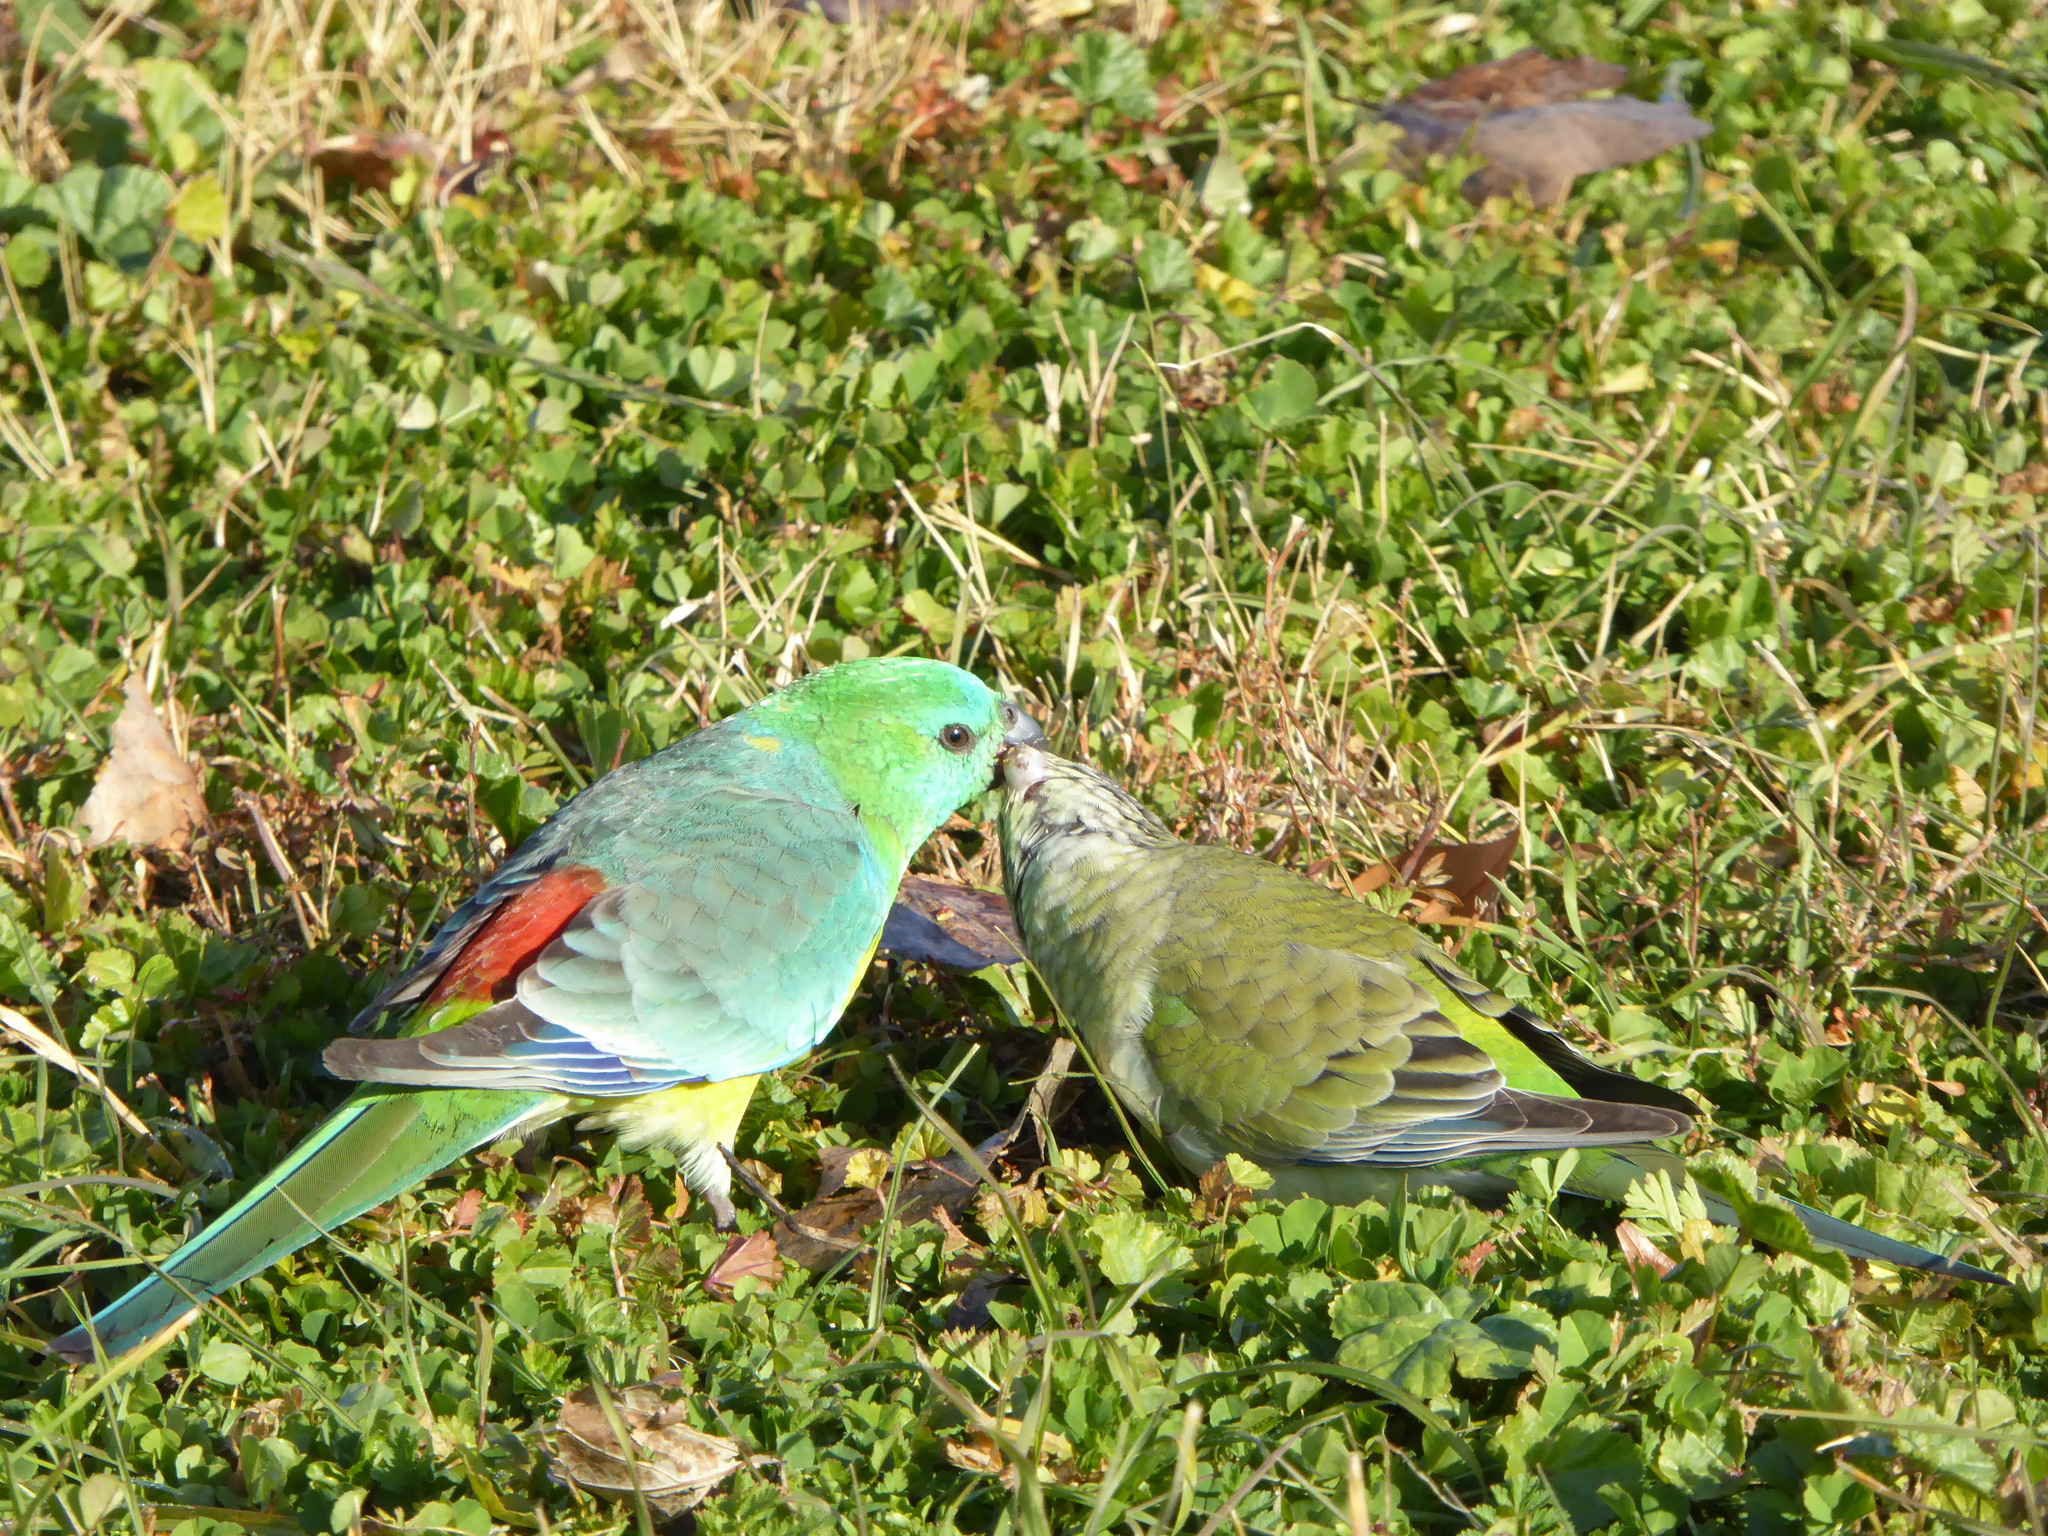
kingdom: Animalia
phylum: Chordata
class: Aves
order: Psittaciformes
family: Psittacidae
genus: Psephotus
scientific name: Psephotus haematonotus
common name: Red-rumped parrot
